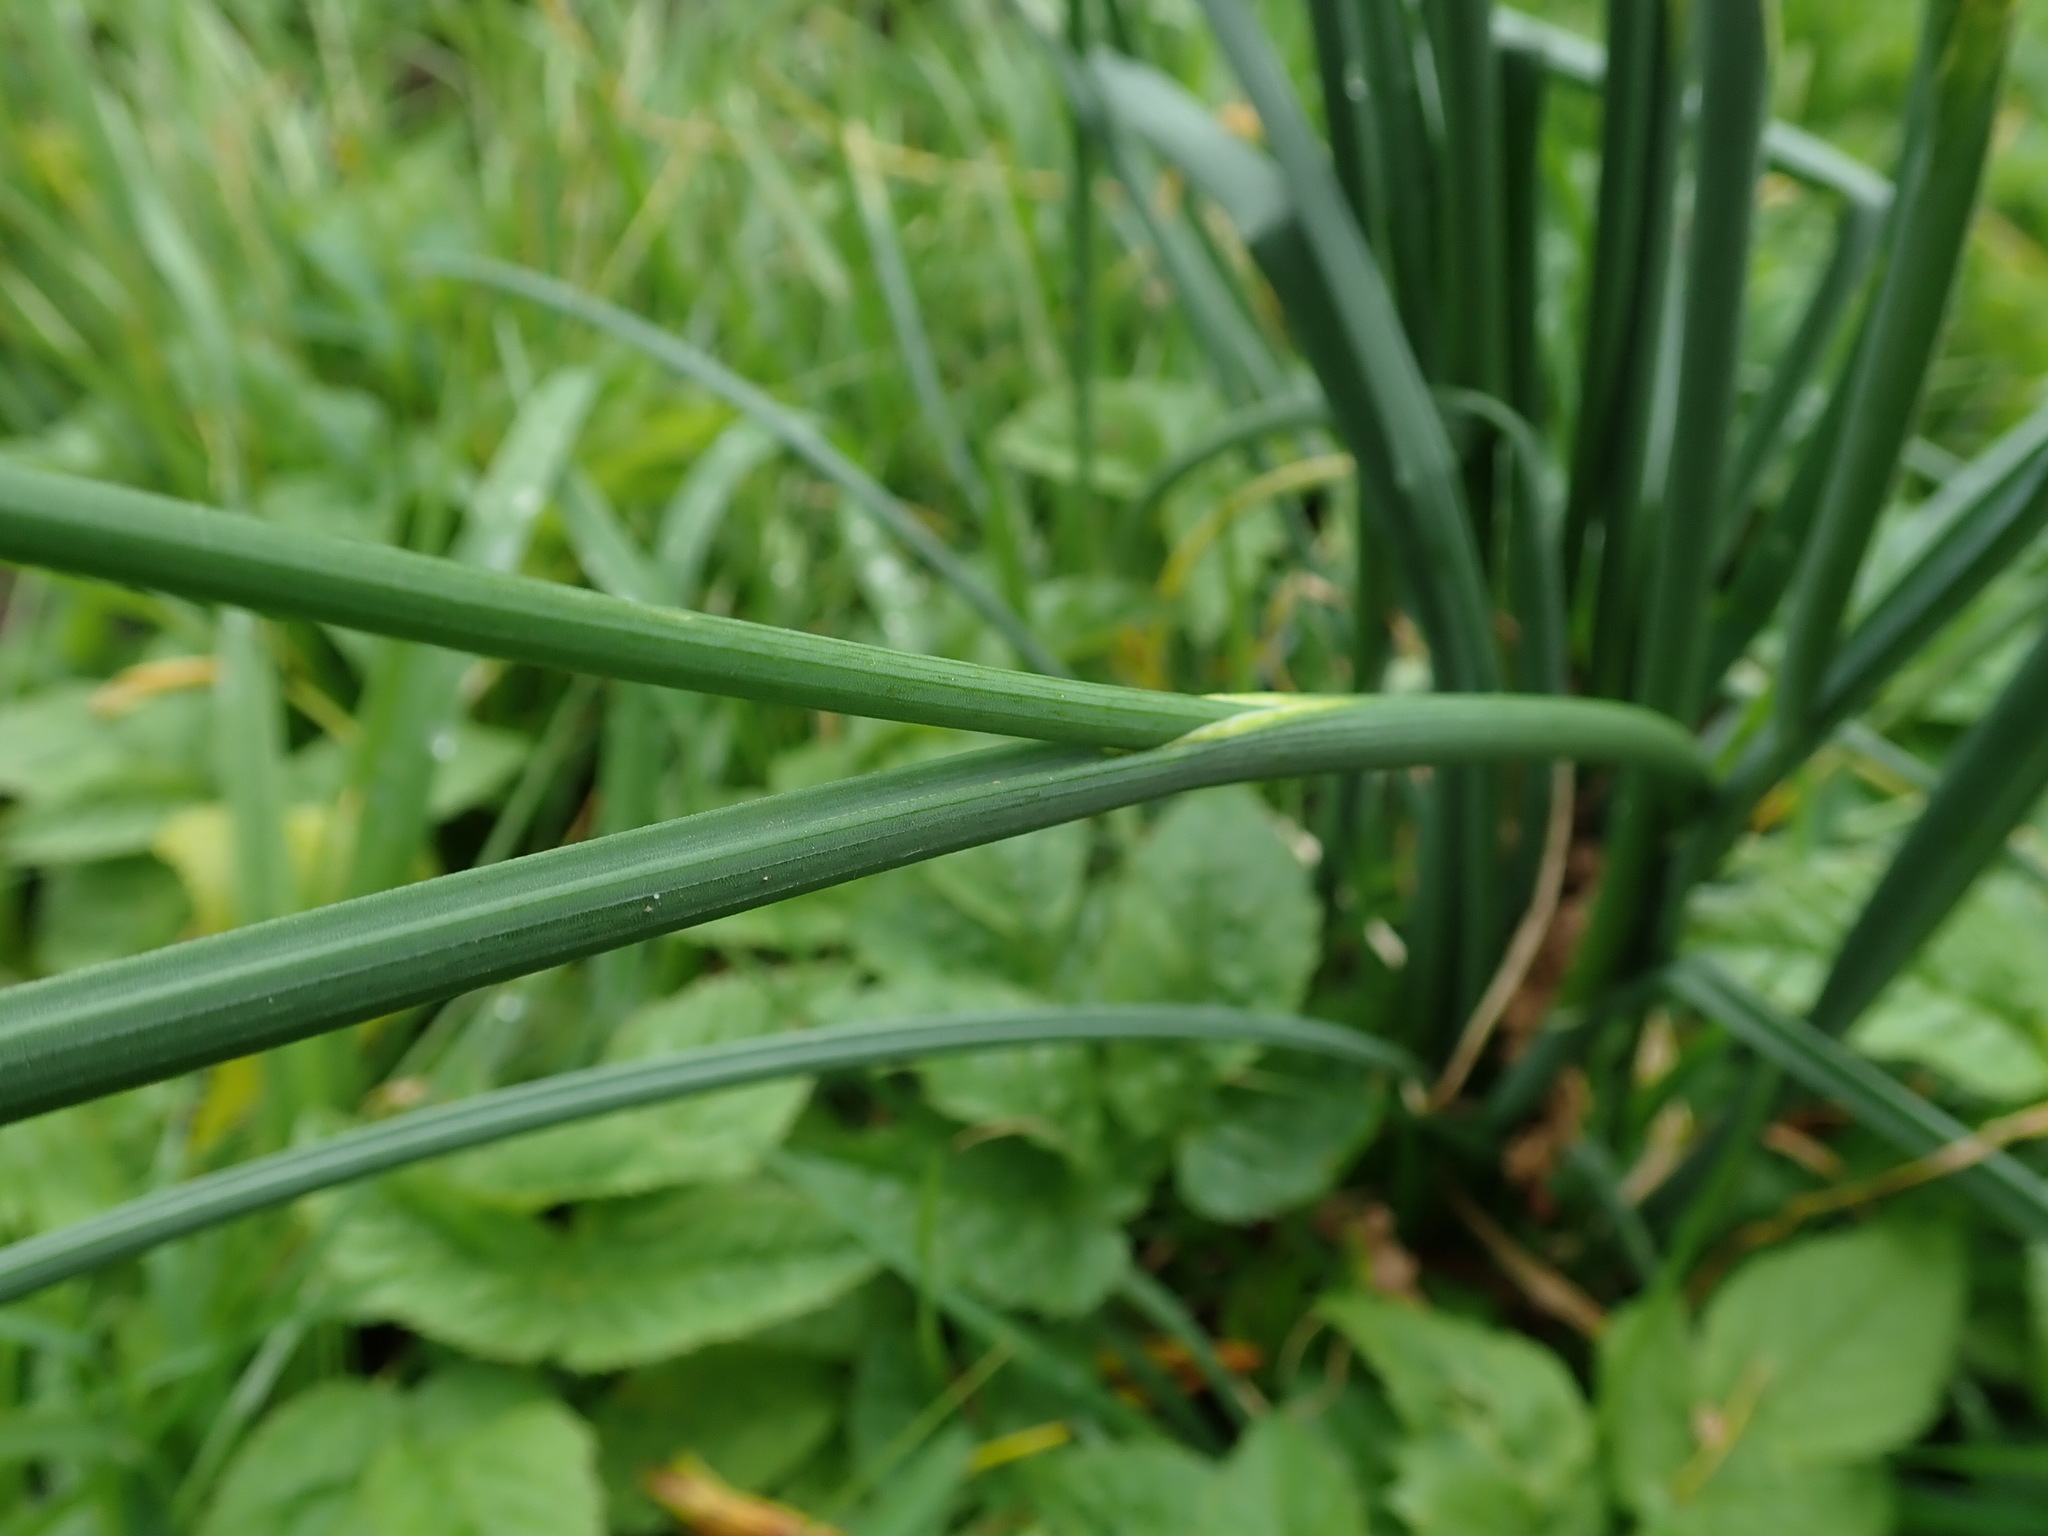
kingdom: Plantae
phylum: Tracheophyta
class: Liliopsida
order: Asparagales
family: Amaryllidaceae
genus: Allium
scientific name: Allium vineale
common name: Crow garlic
